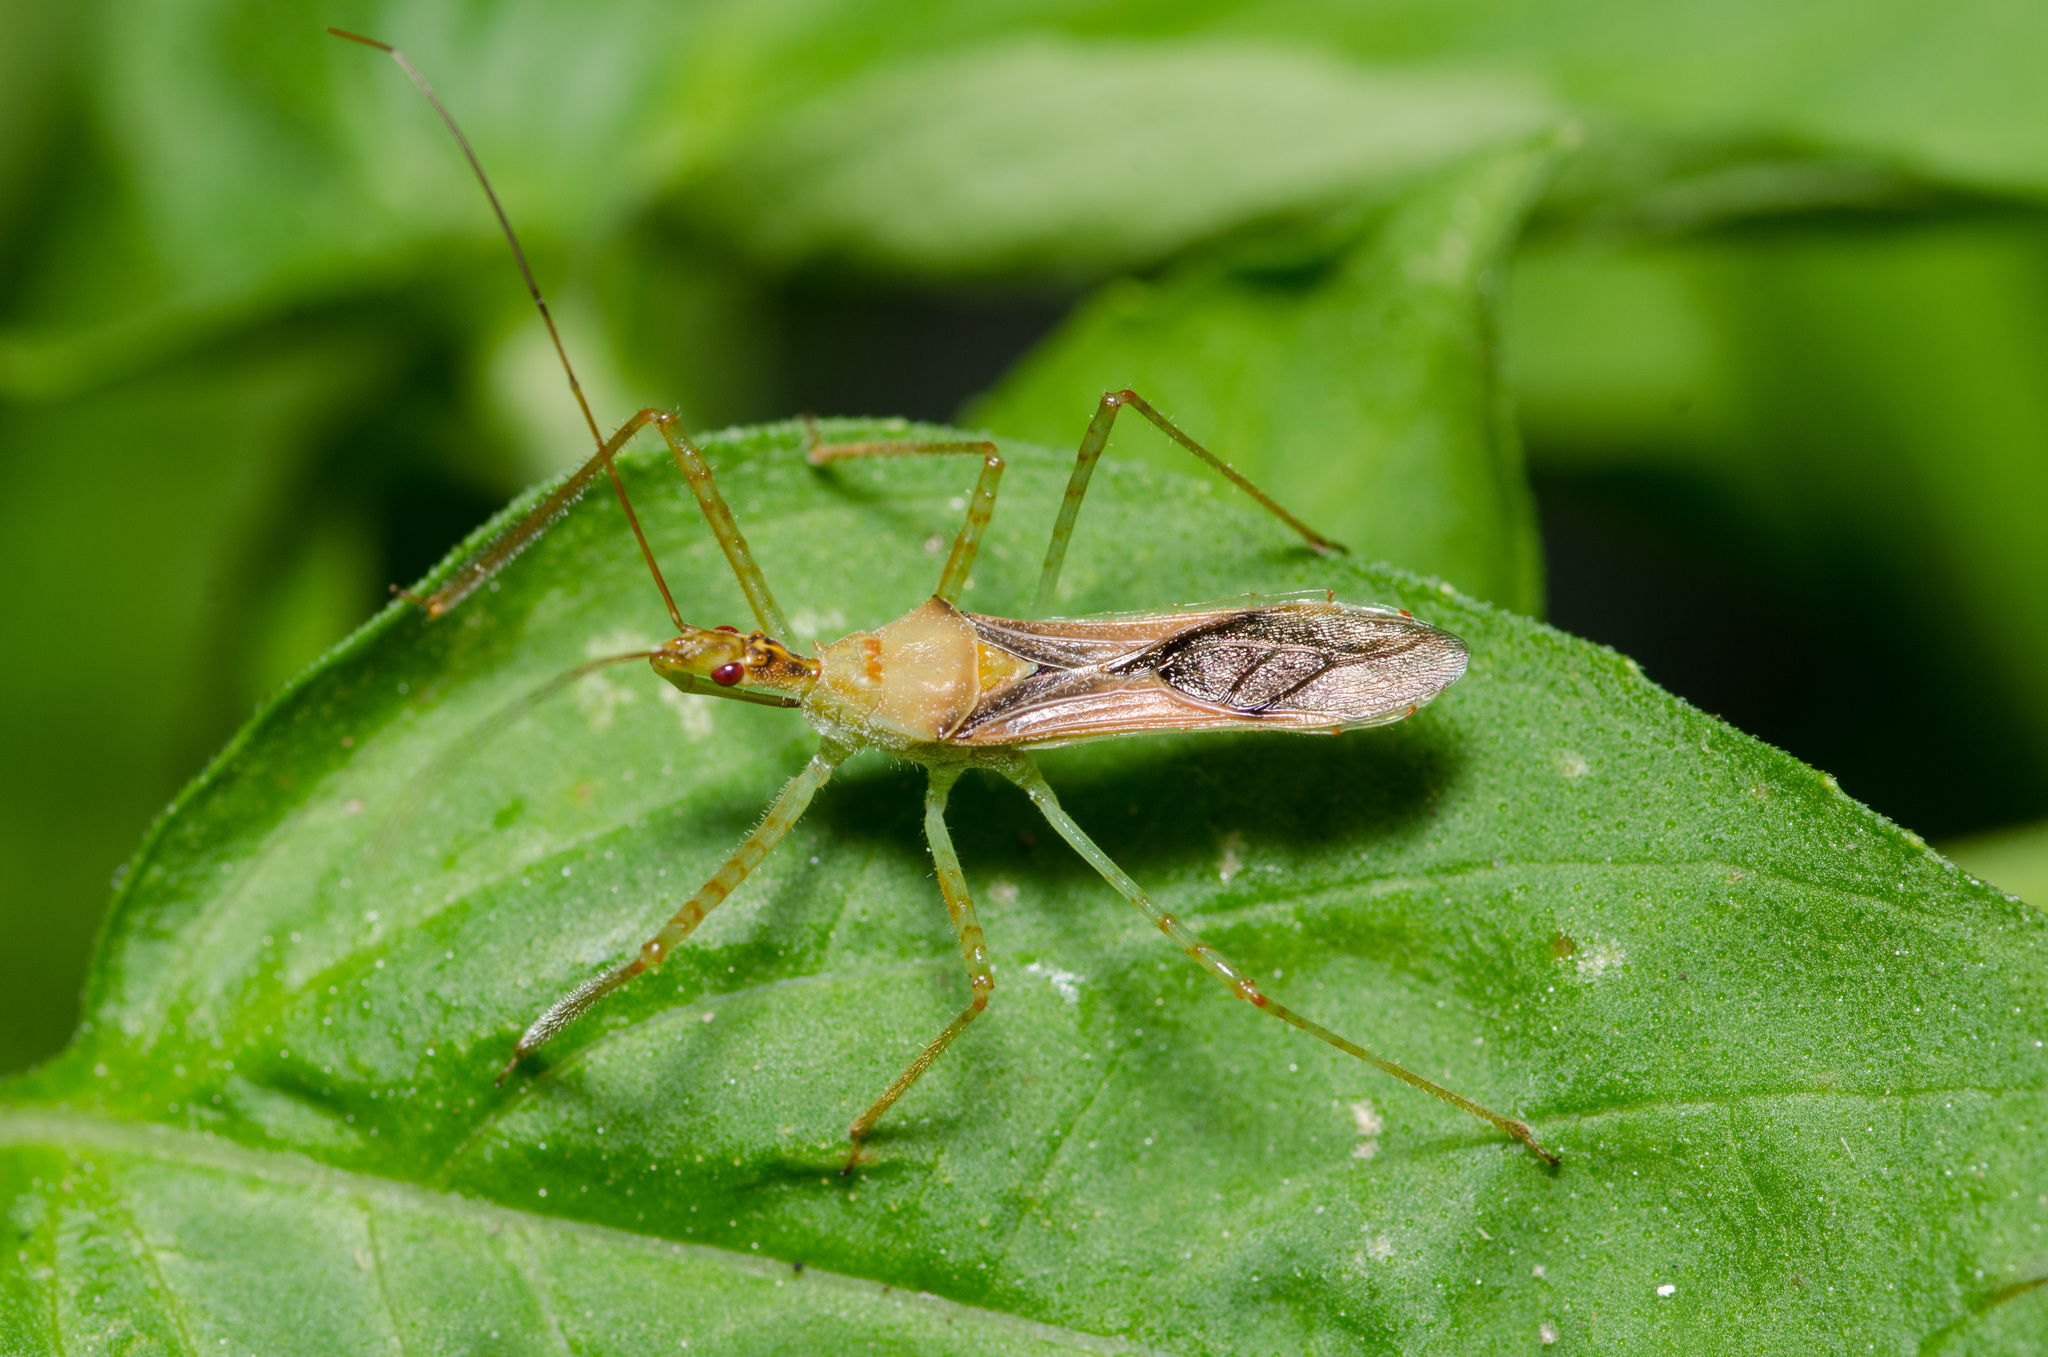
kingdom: Animalia
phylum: Arthropoda
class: Insecta
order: Hemiptera
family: Reduviidae
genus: Zelus
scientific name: Zelus renardii
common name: Assassin bug
